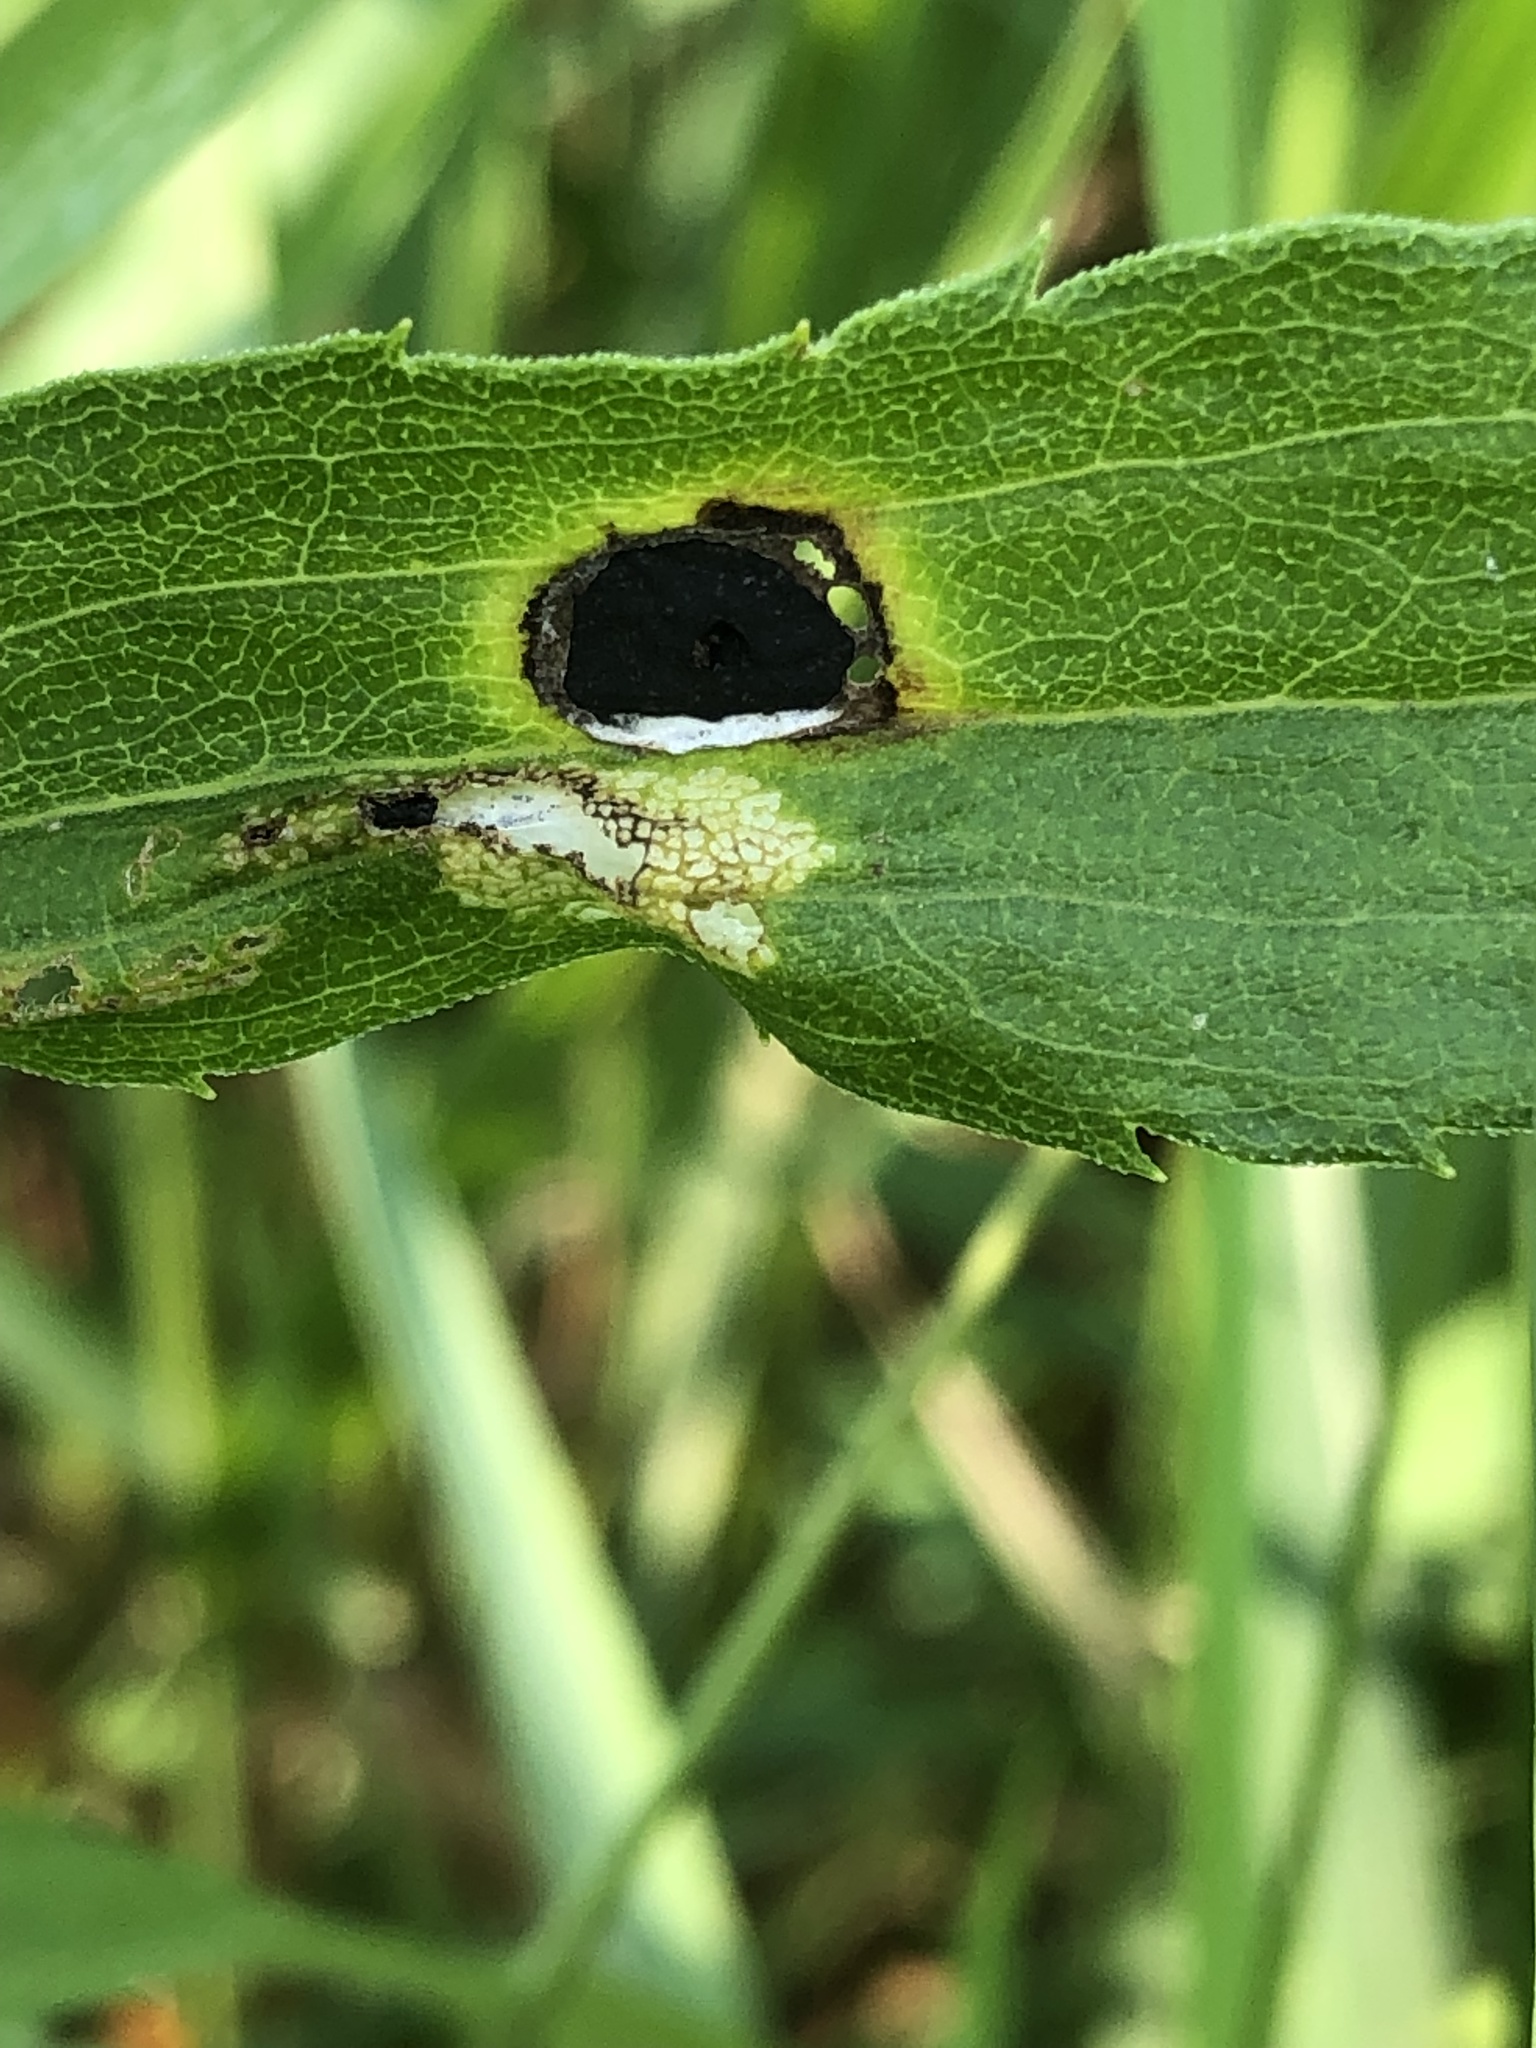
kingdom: Animalia
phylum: Arthropoda
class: Insecta
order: Diptera
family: Cecidomyiidae
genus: Asteromyia
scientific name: Asteromyia carbonifera
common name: Carbonifera goldenrod gall midge
